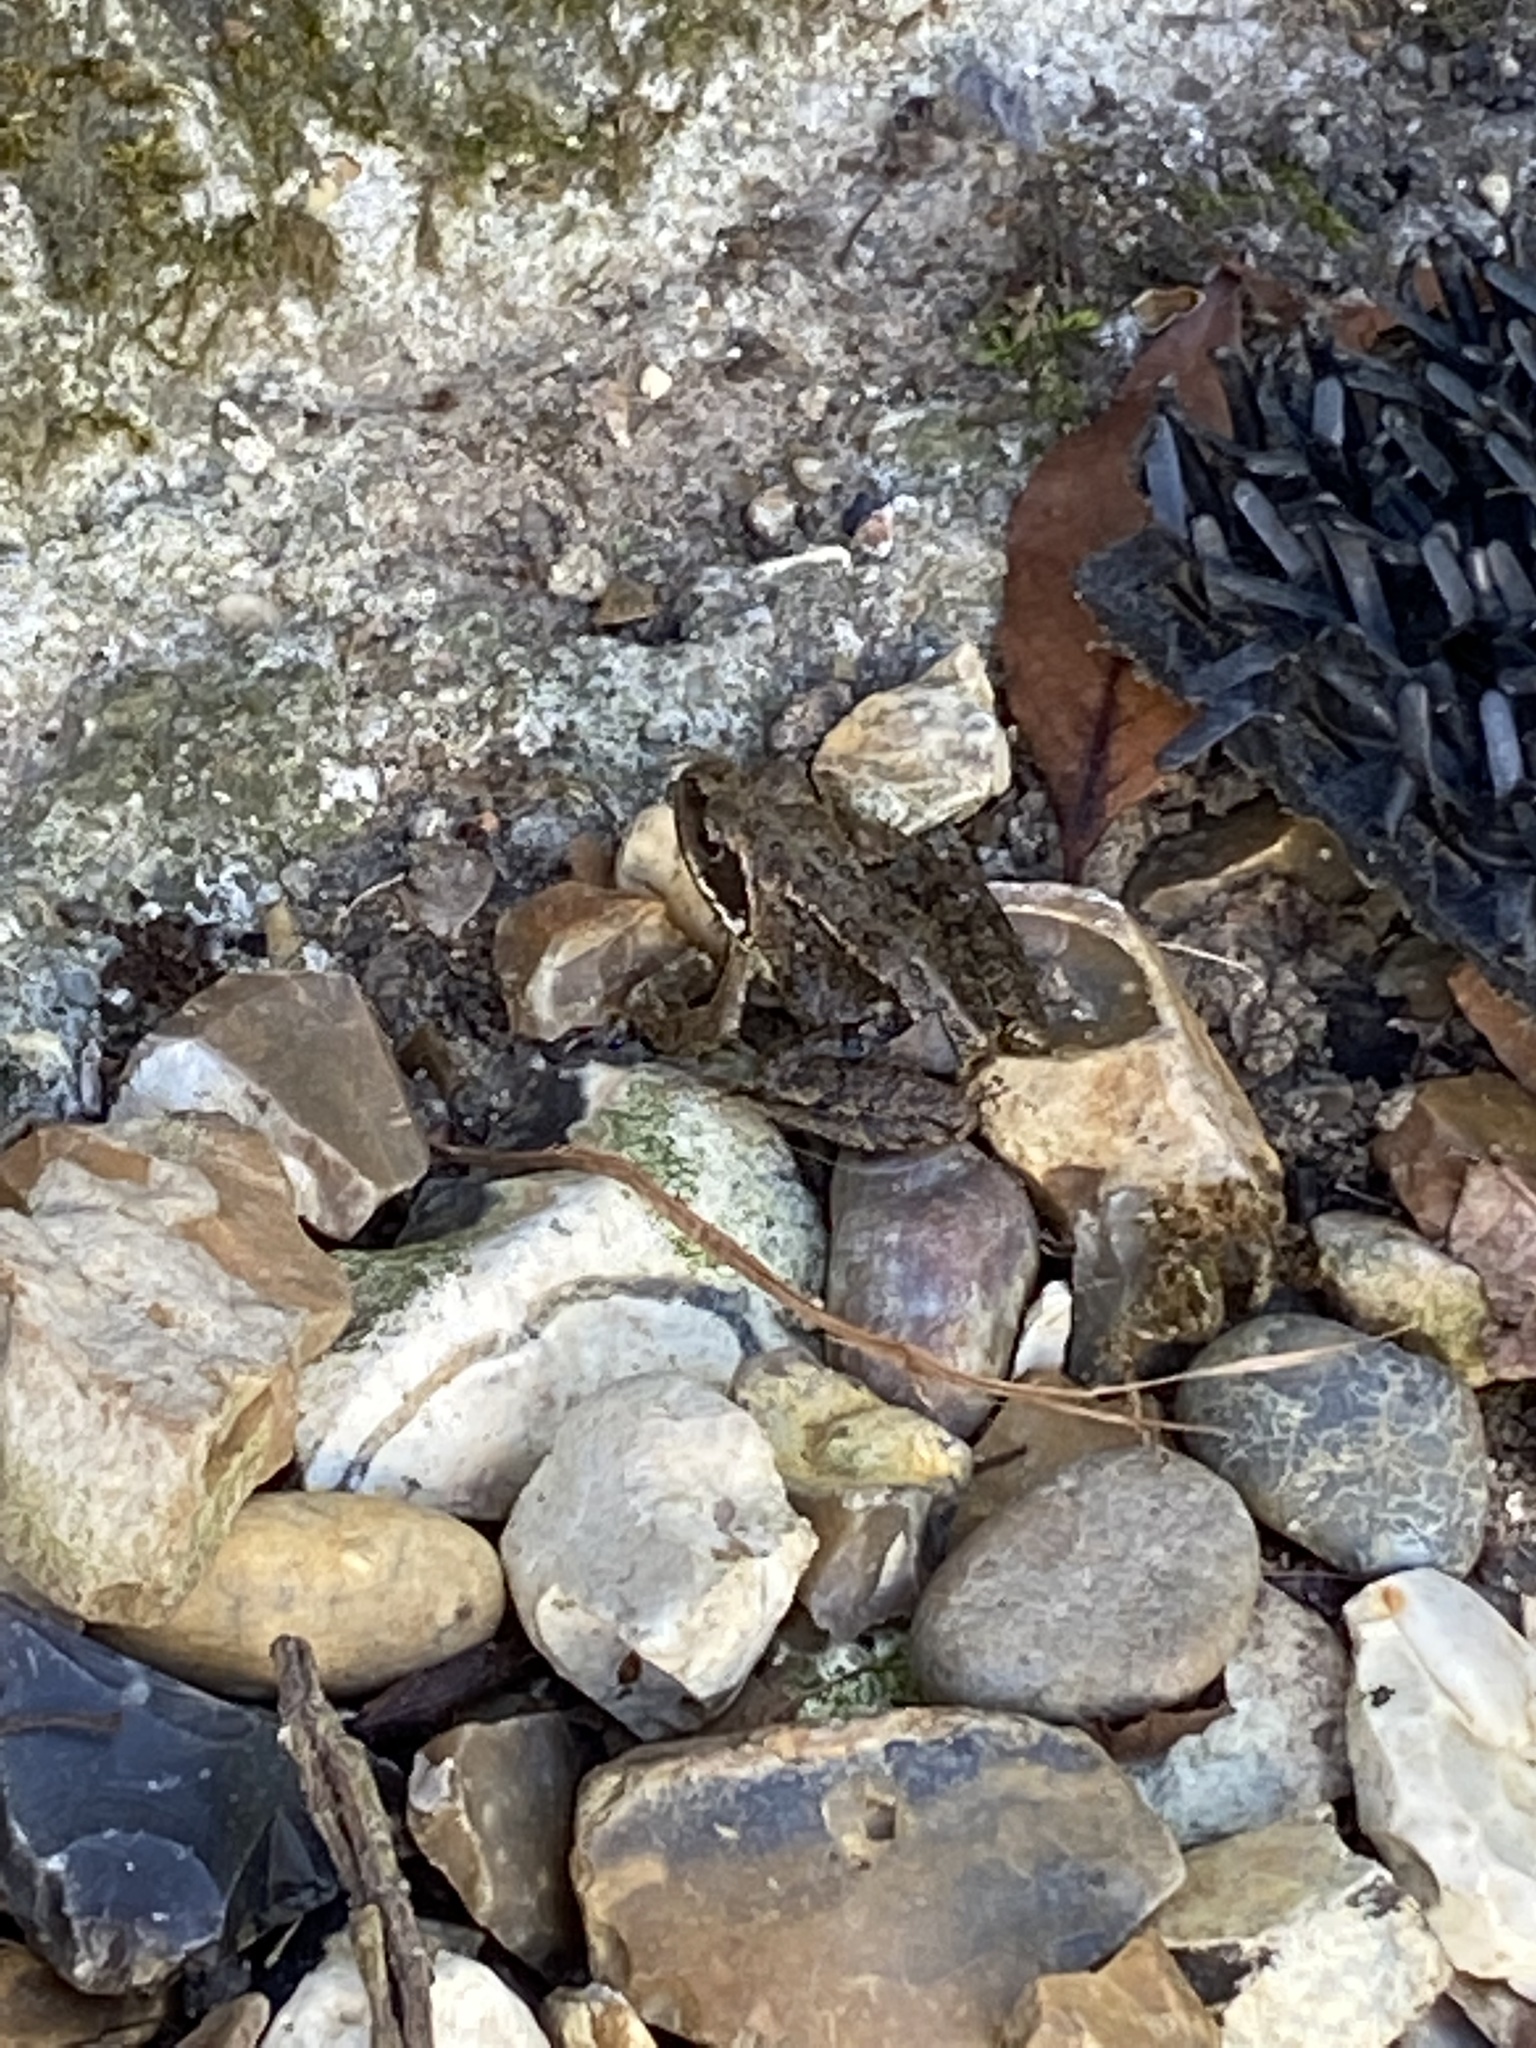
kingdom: Animalia
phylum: Chordata
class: Amphibia
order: Anura
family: Ranidae
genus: Rana
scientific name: Rana temporaria
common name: Common frog
